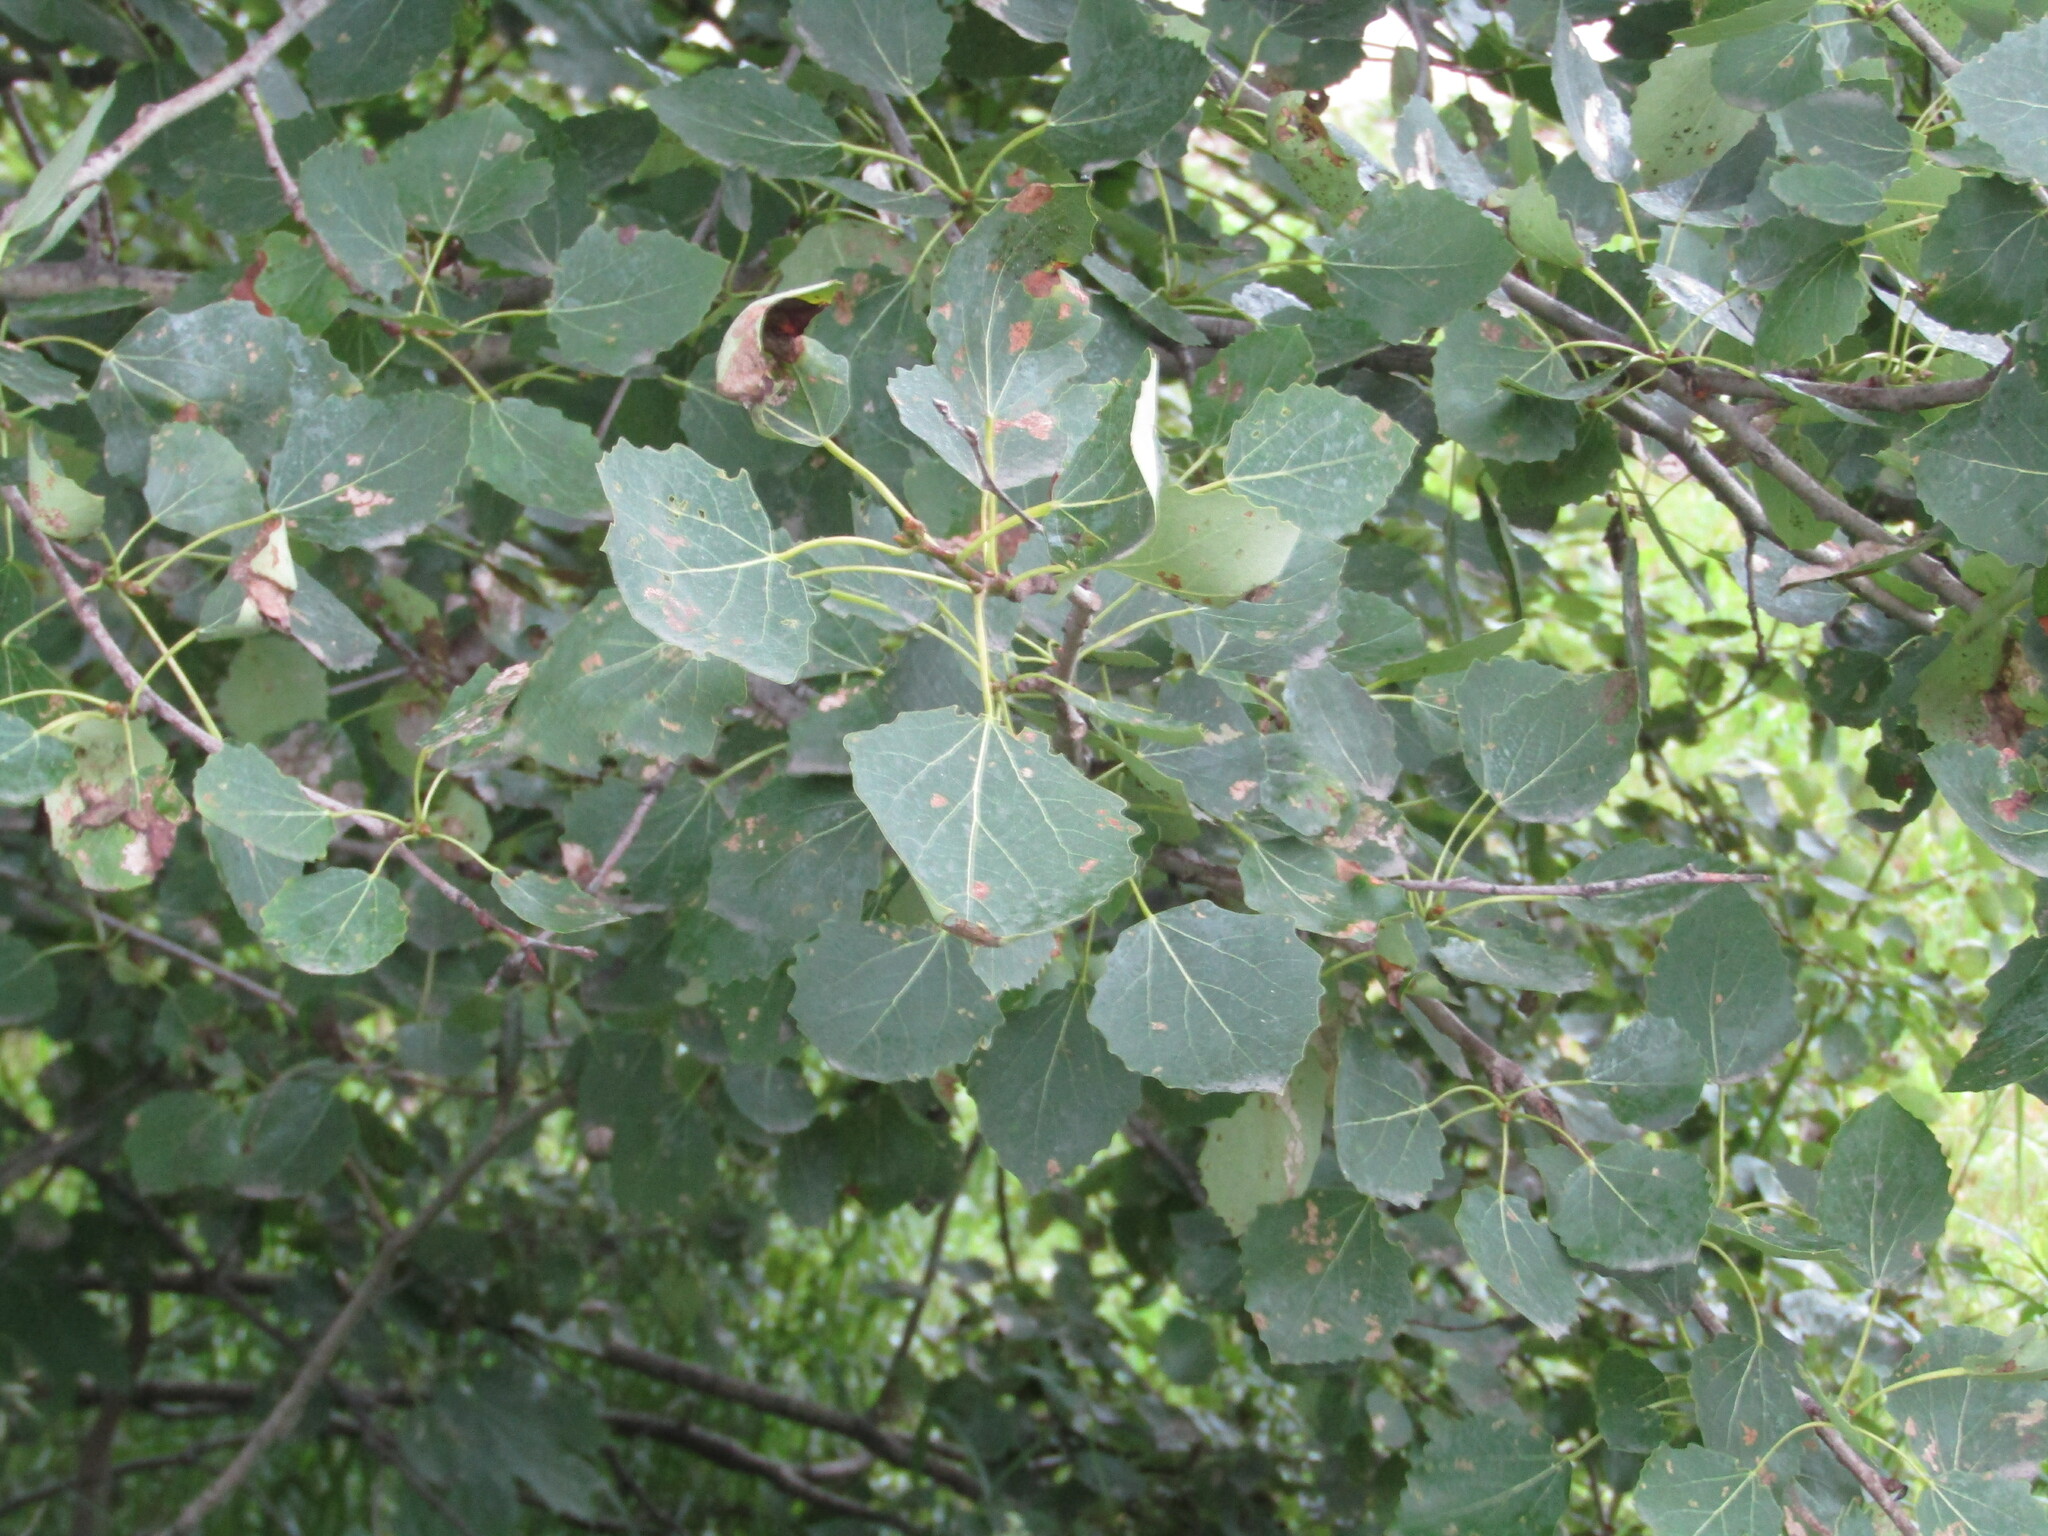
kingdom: Plantae
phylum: Tracheophyta
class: Magnoliopsida
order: Malpighiales
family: Salicaceae
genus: Populus
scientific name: Populus tremula
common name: European aspen
